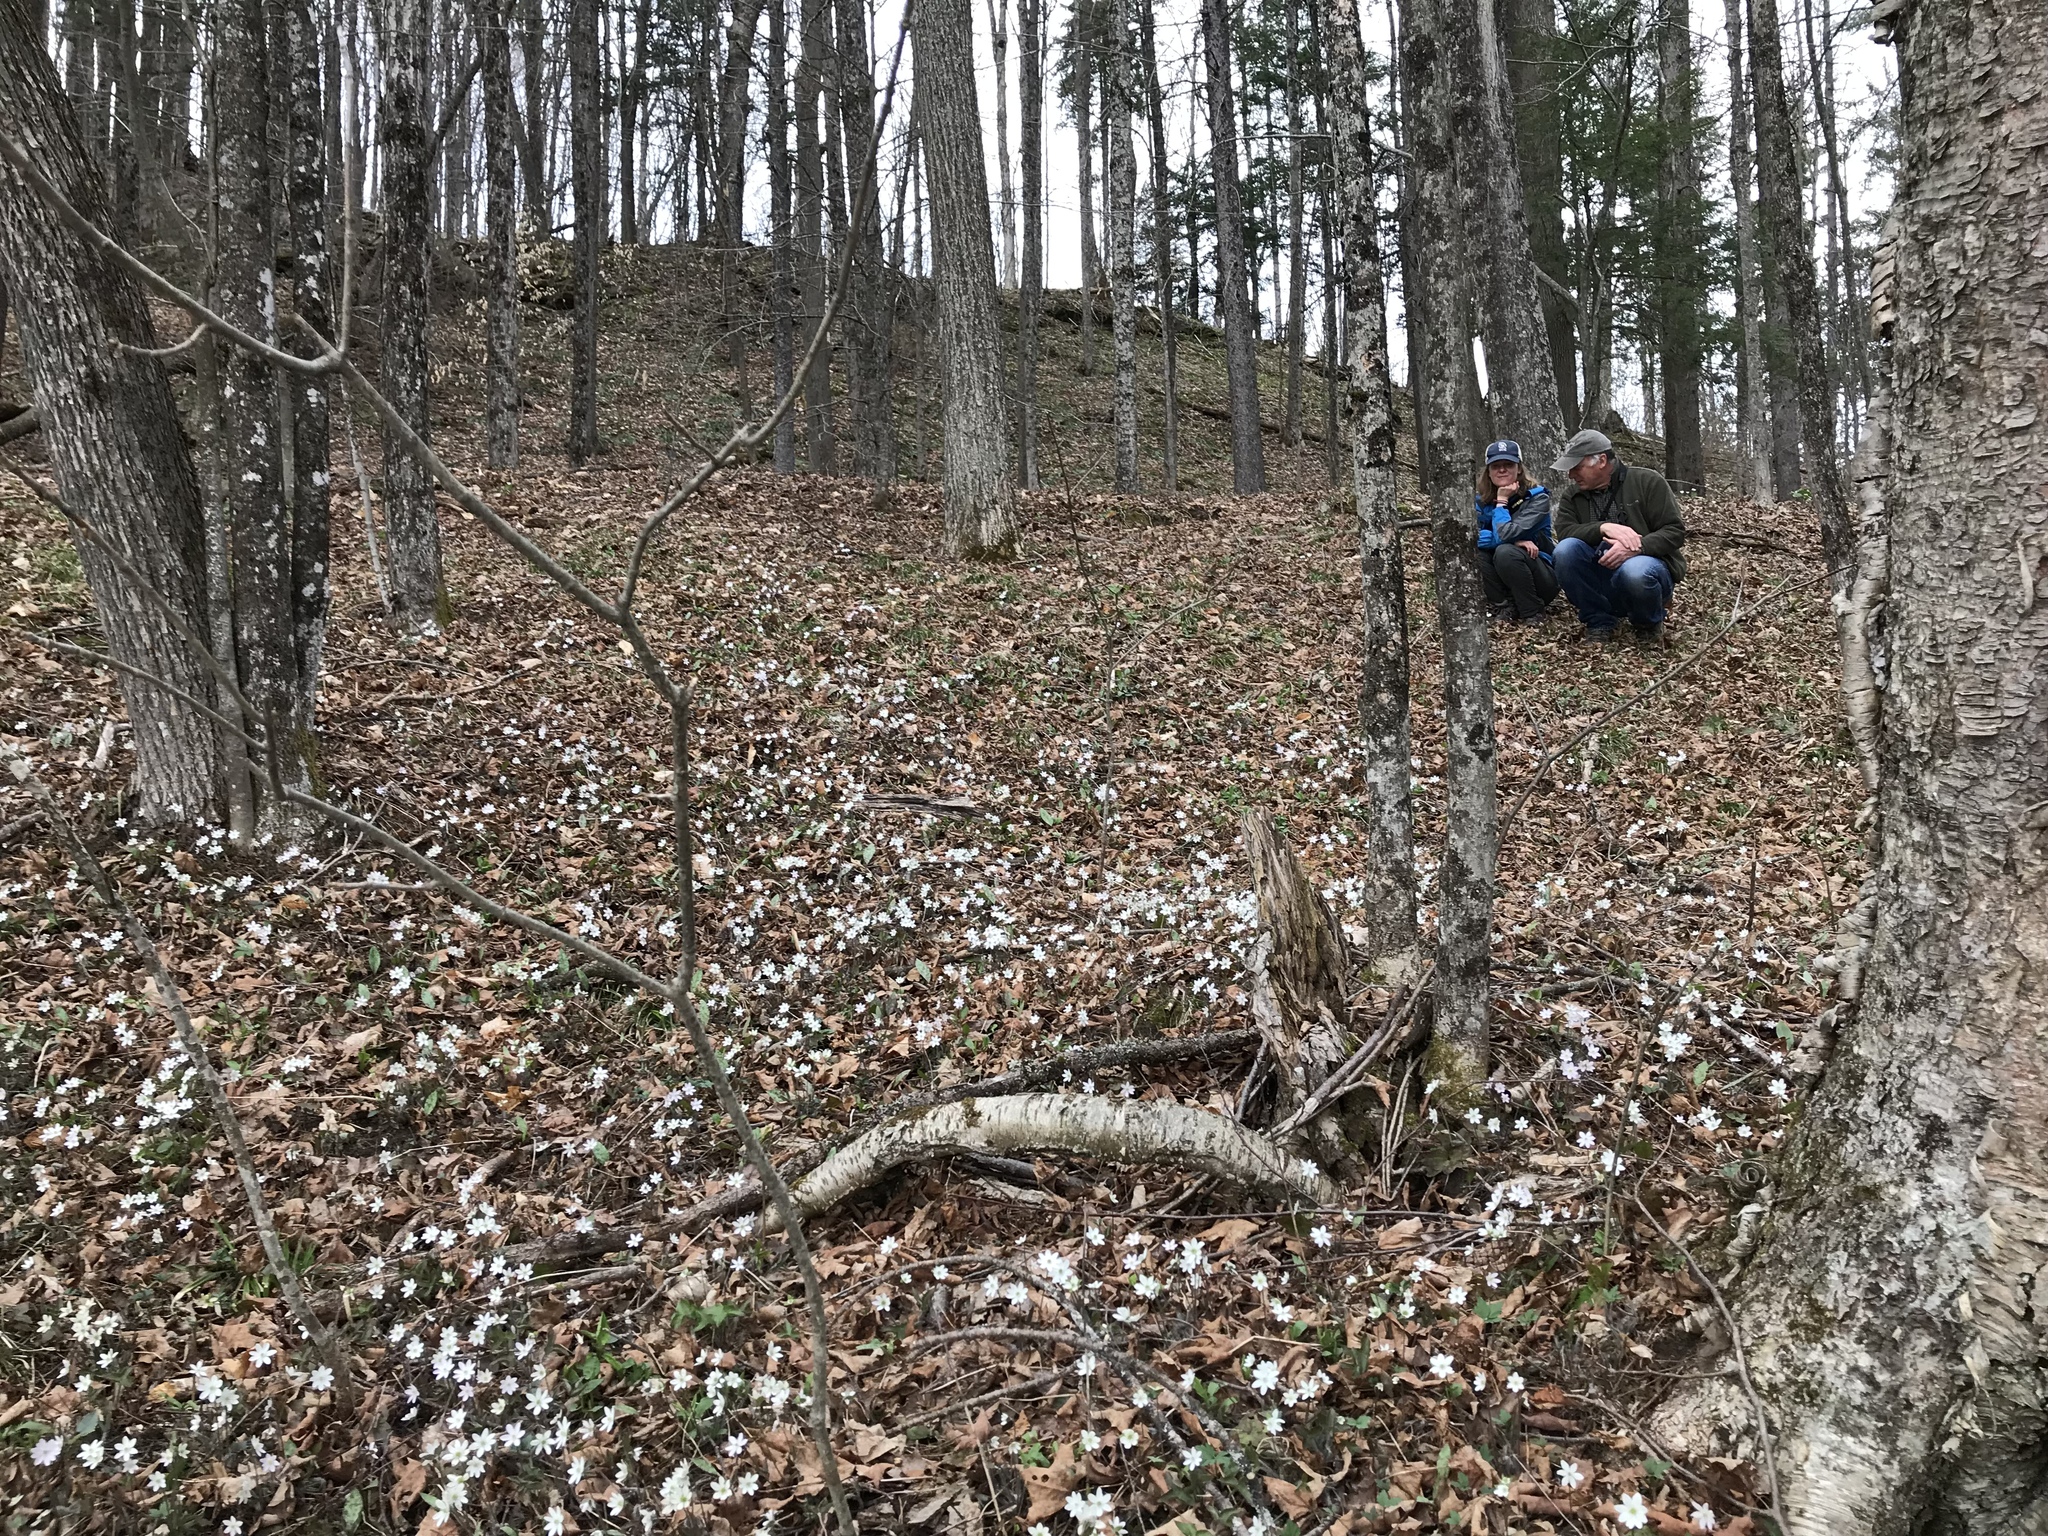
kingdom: Plantae
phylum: Tracheophyta
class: Magnoliopsida
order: Ranunculales
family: Ranunculaceae
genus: Hepatica
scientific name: Hepatica acutiloba
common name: Sharp-lobed hepatica
